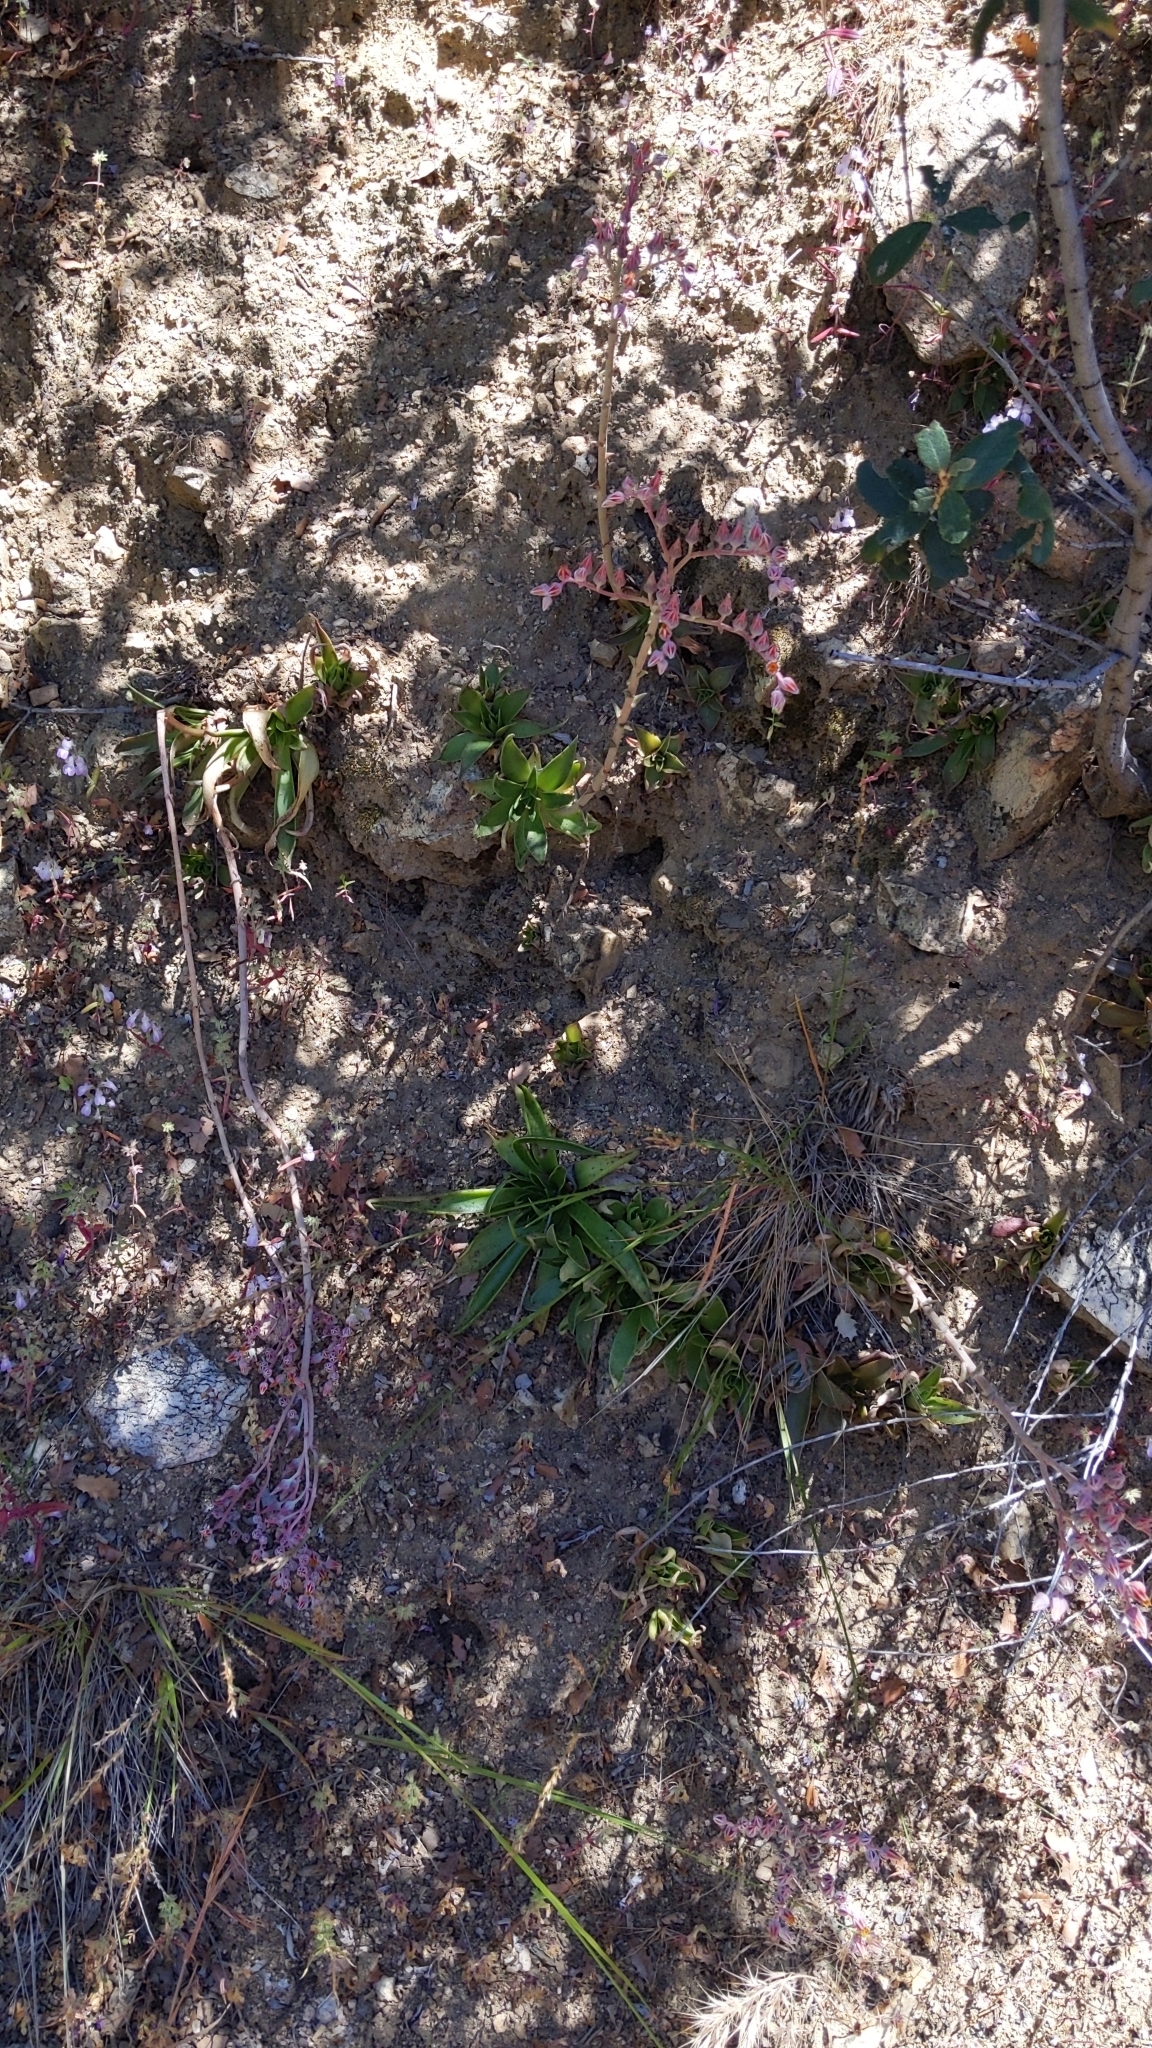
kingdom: Plantae
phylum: Tracheophyta
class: Magnoliopsida
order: Saxifragales
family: Crassulaceae
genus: Dudleya
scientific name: Dudleya lanceolata
